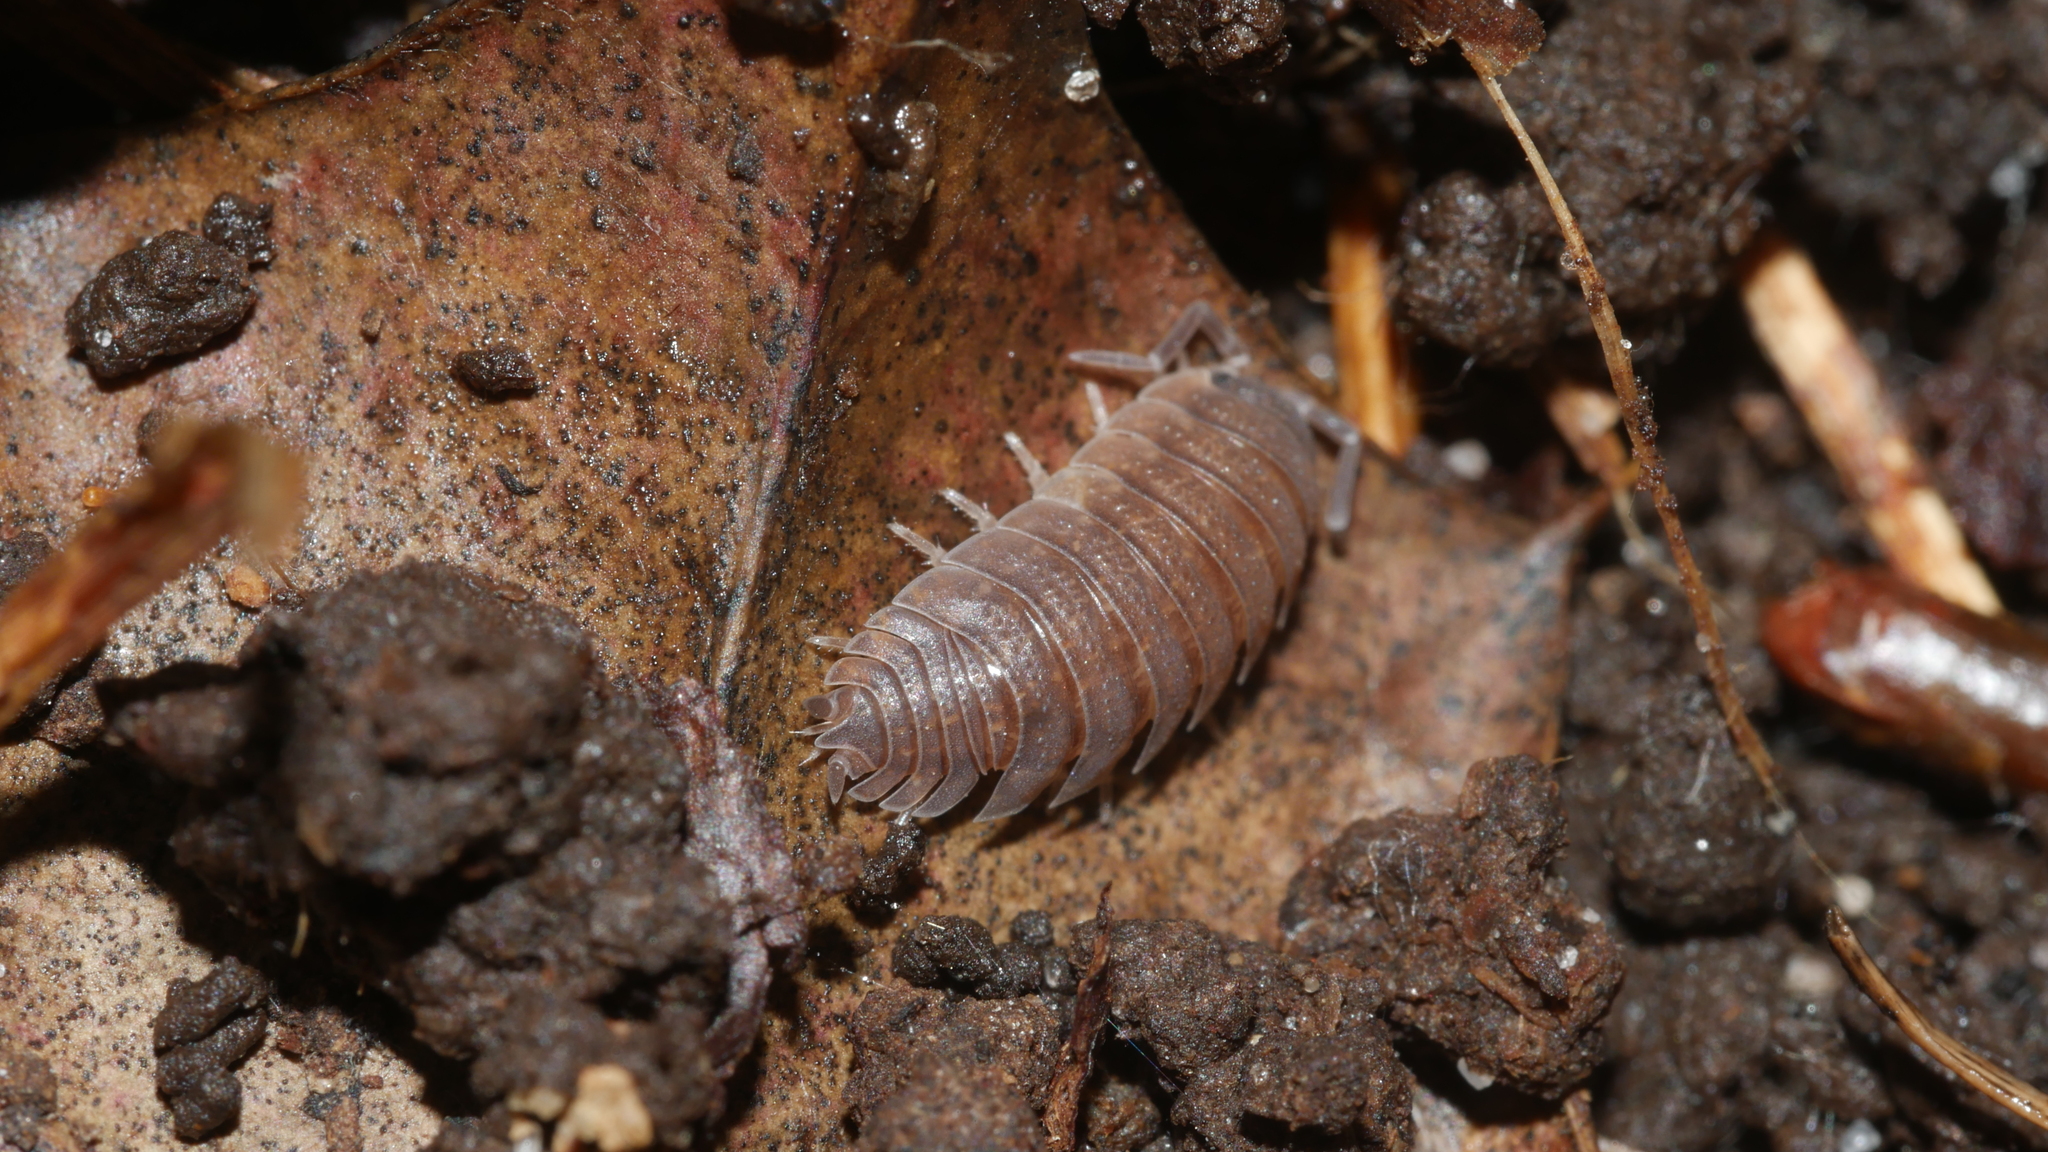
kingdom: Animalia
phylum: Arthropoda
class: Malacostraca
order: Isopoda
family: Porcellionidae
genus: Porcellio
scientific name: Porcellio scaber
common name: Common rough woodlouse
